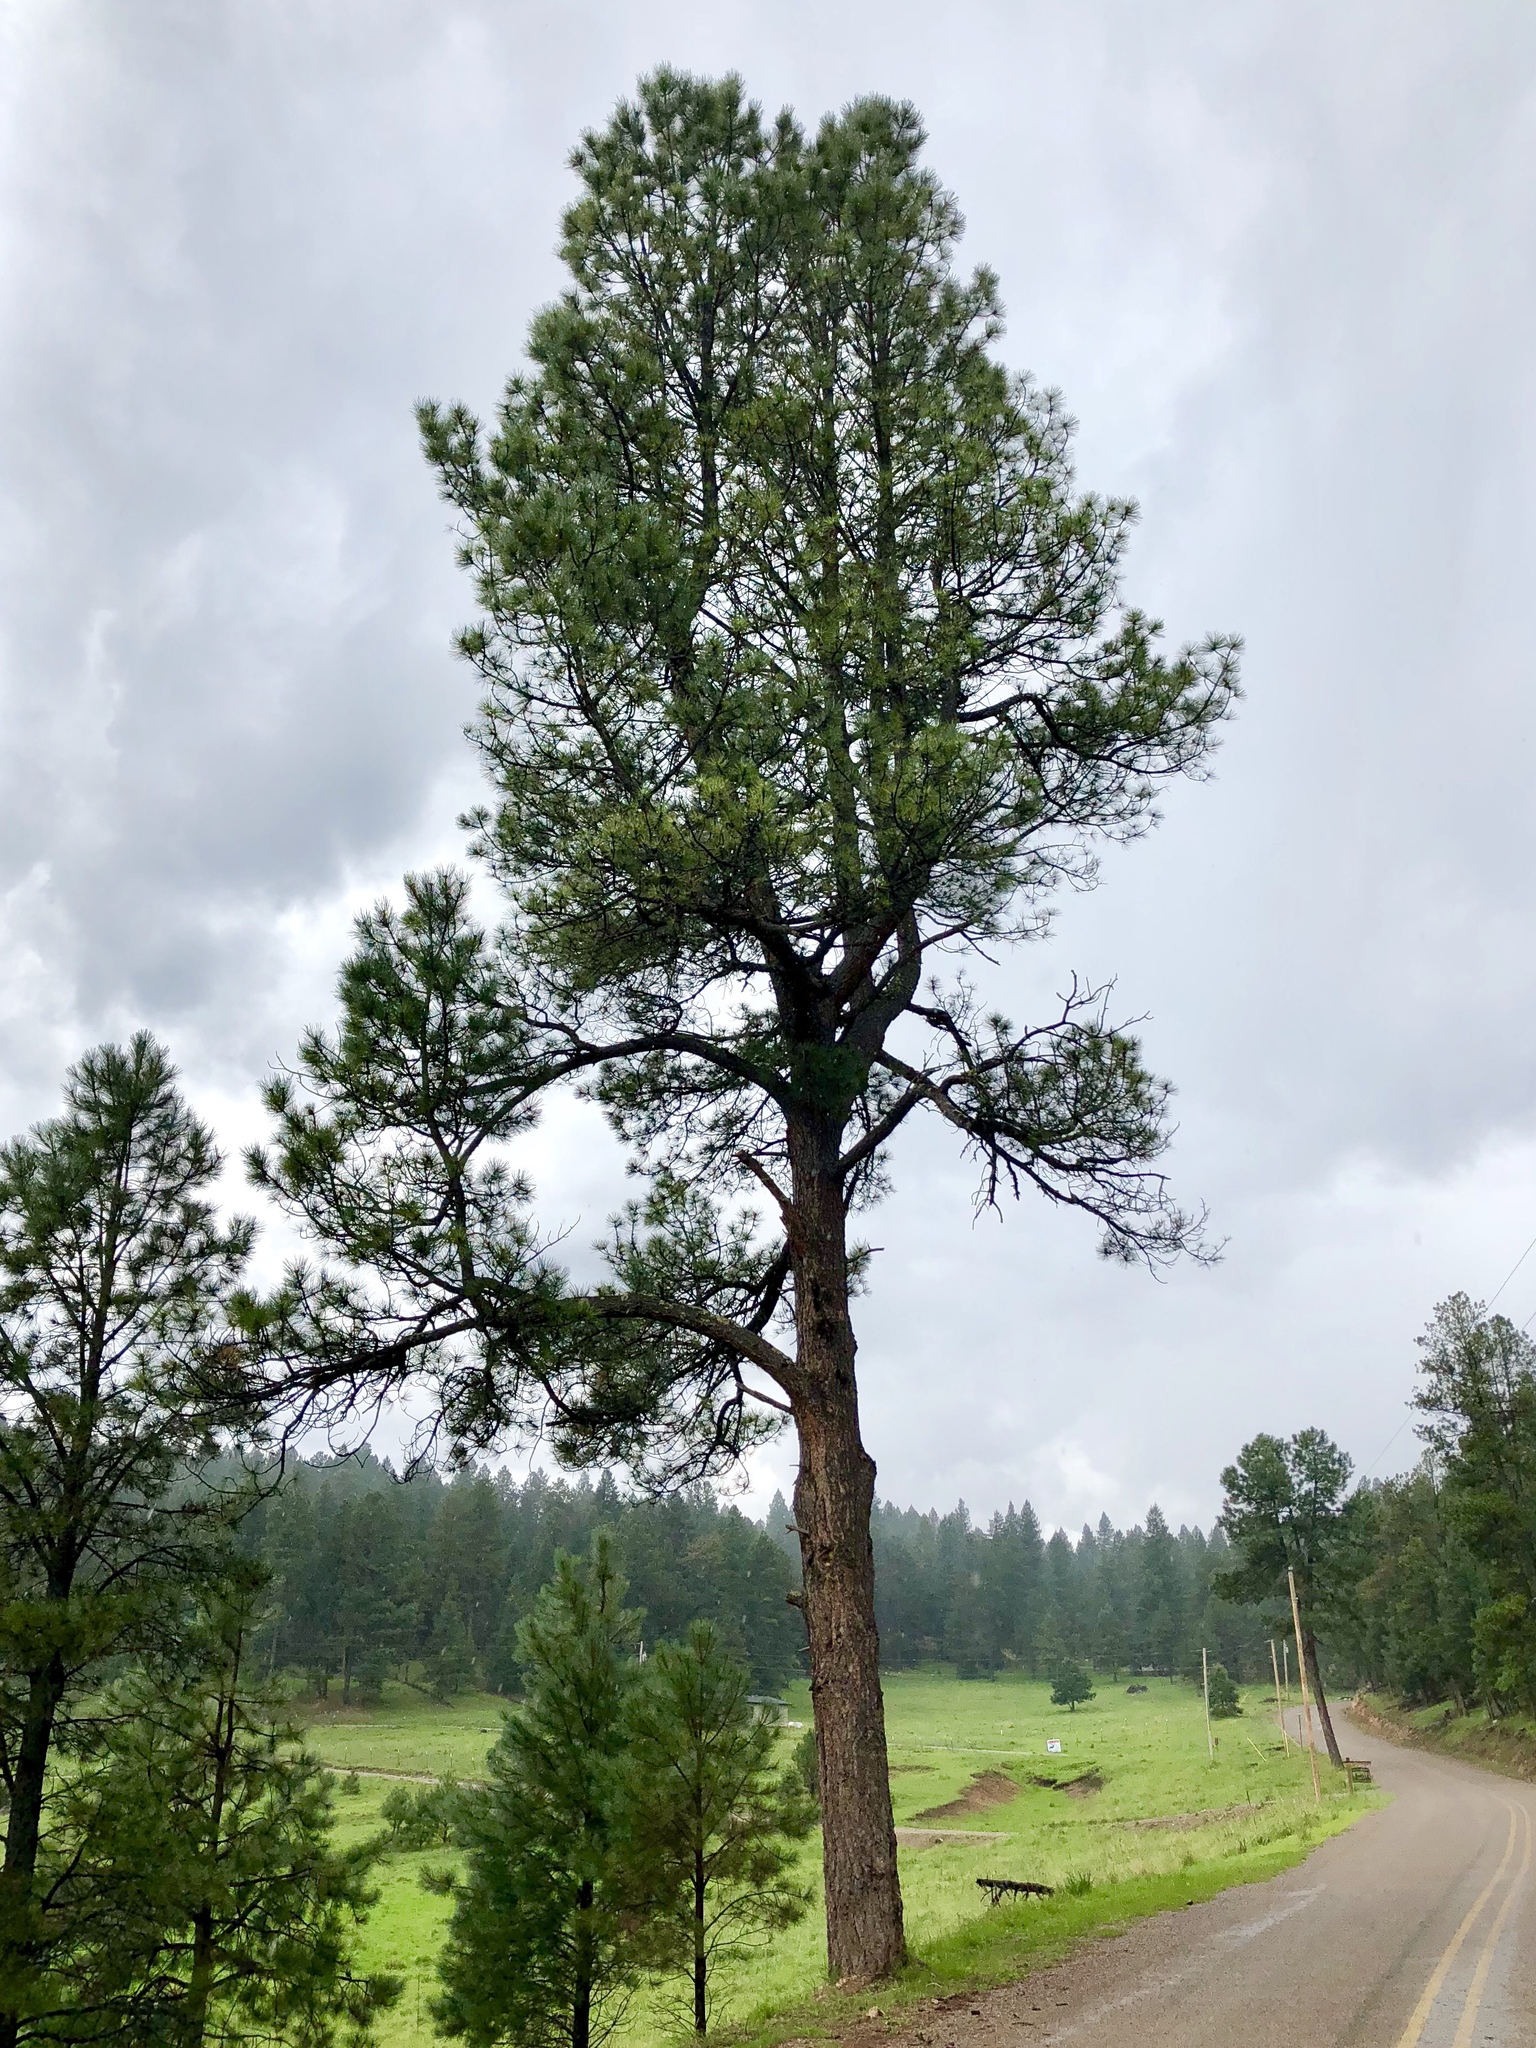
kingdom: Plantae
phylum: Tracheophyta
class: Pinopsida
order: Pinales
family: Pinaceae
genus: Pinus
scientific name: Pinus ponderosa
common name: Western yellow-pine
